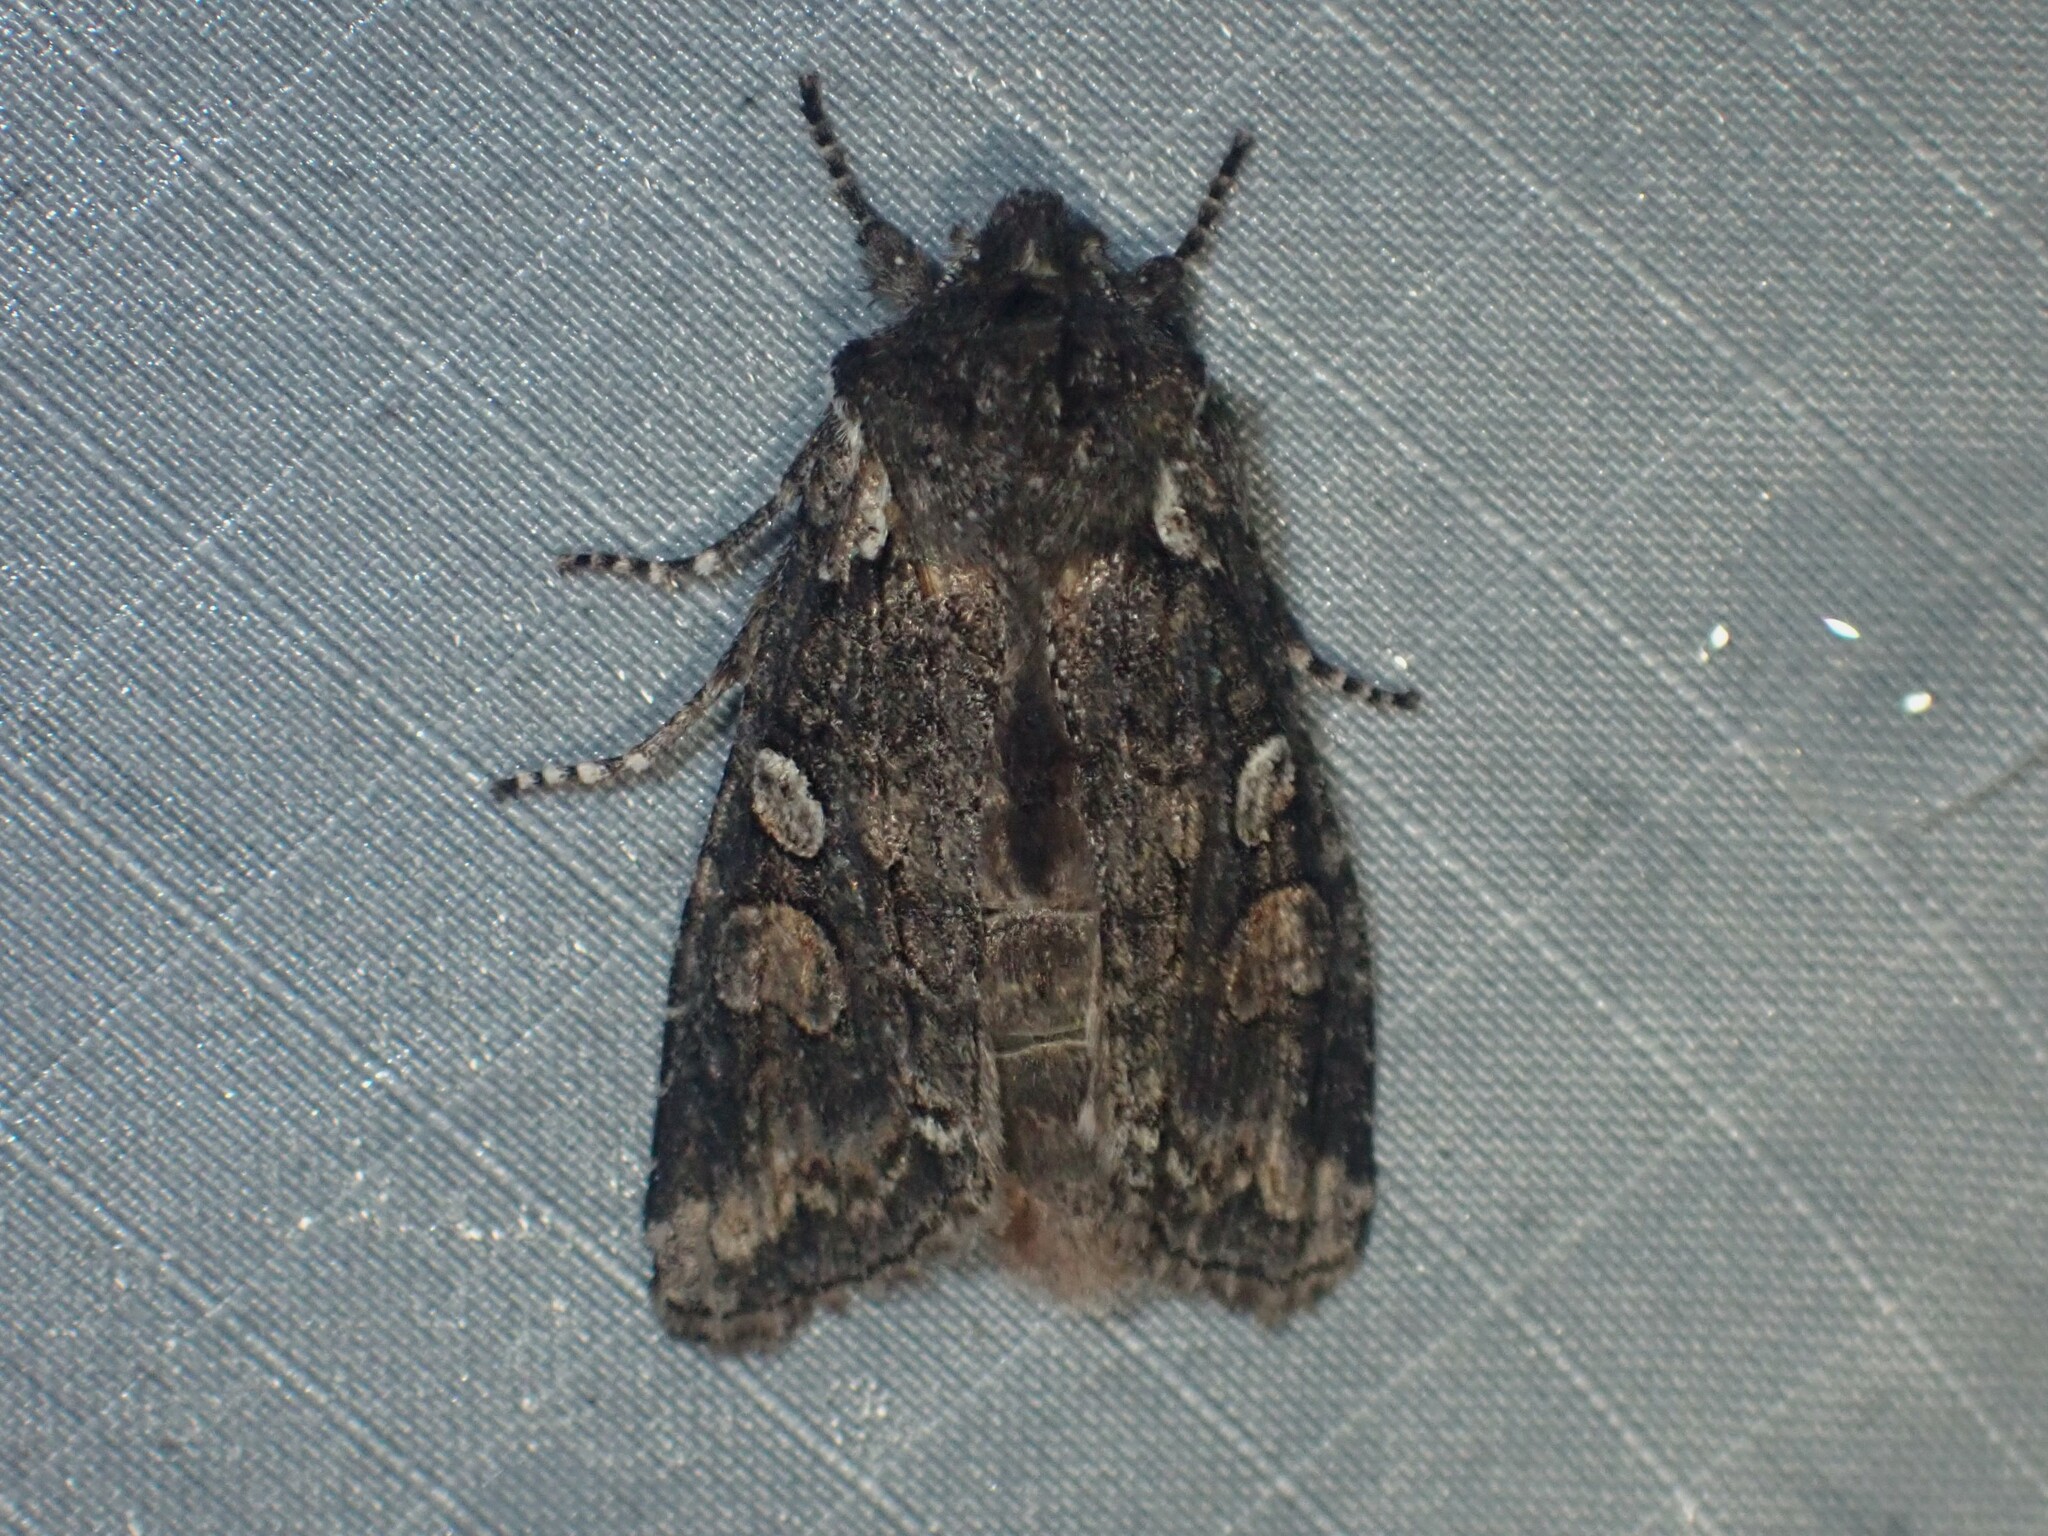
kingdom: Animalia
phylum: Arthropoda
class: Insecta
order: Lepidoptera
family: Noctuidae
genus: Lithophane
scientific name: Lithophane pexata
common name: Plush-naped pinion moth
